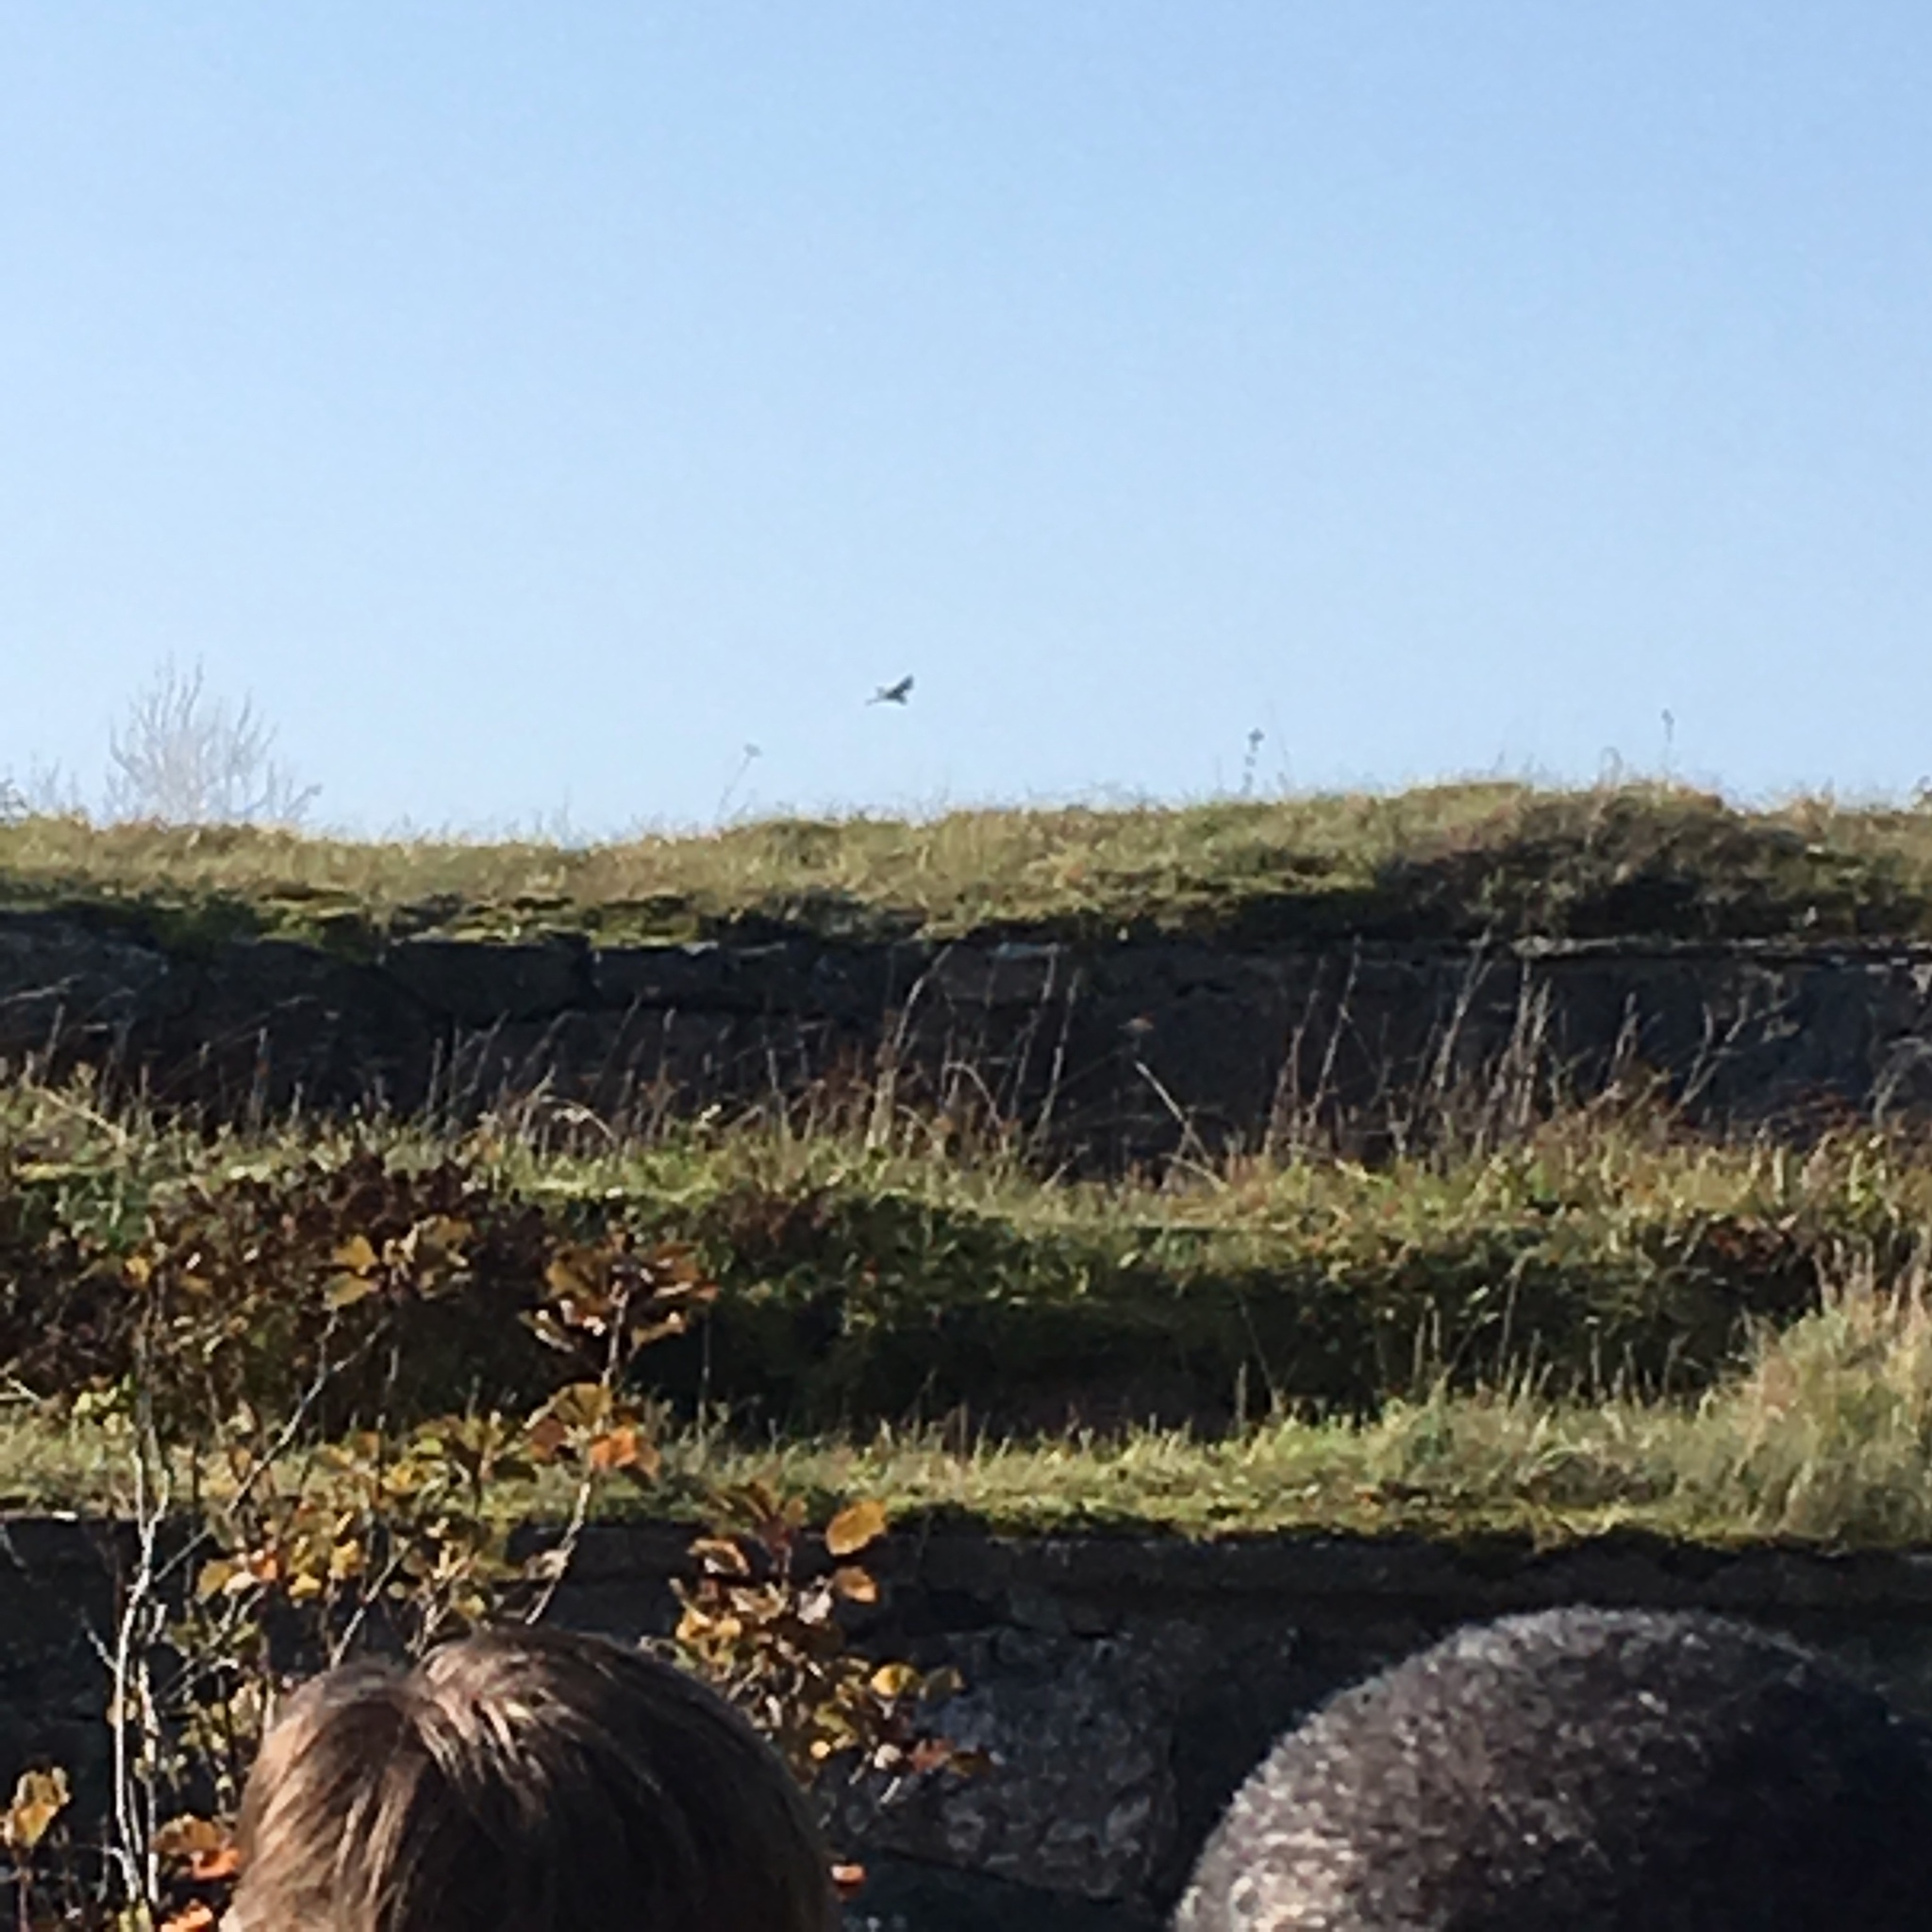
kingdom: Animalia
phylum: Chordata
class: Aves
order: Falconiformes
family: Falconidae
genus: Falco
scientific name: Falco tinnunculus
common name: Common kestrel
